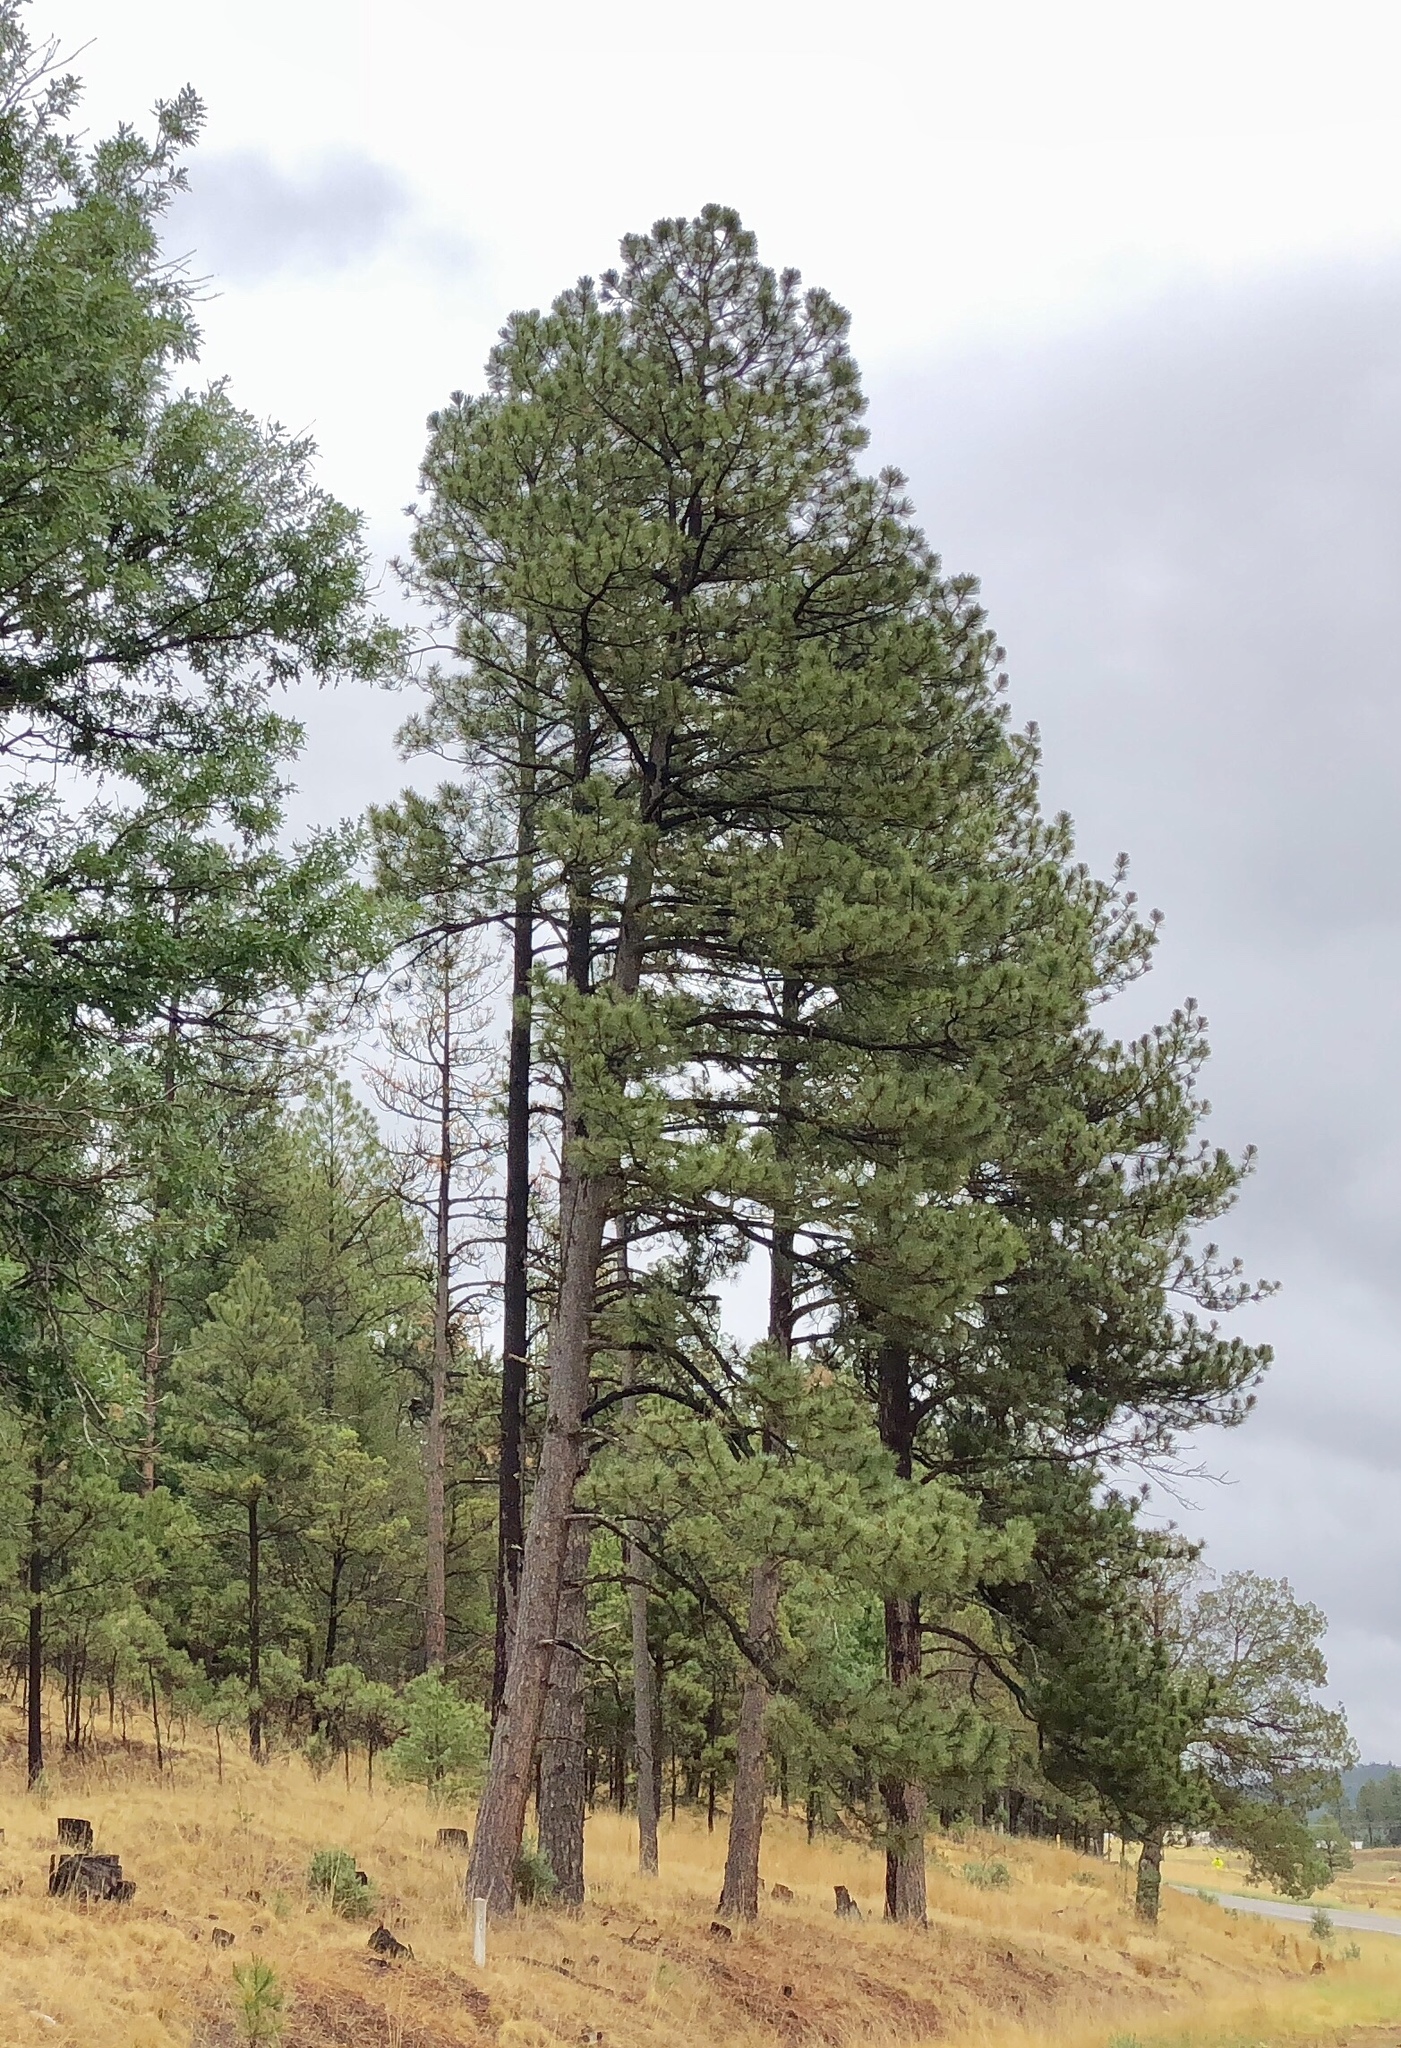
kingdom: Plantae
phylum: Tracheophyta
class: Pinopsida
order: Pinales
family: Pinaceae
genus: Pinus
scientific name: Pinus ponderosa
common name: Western yellow-pine
